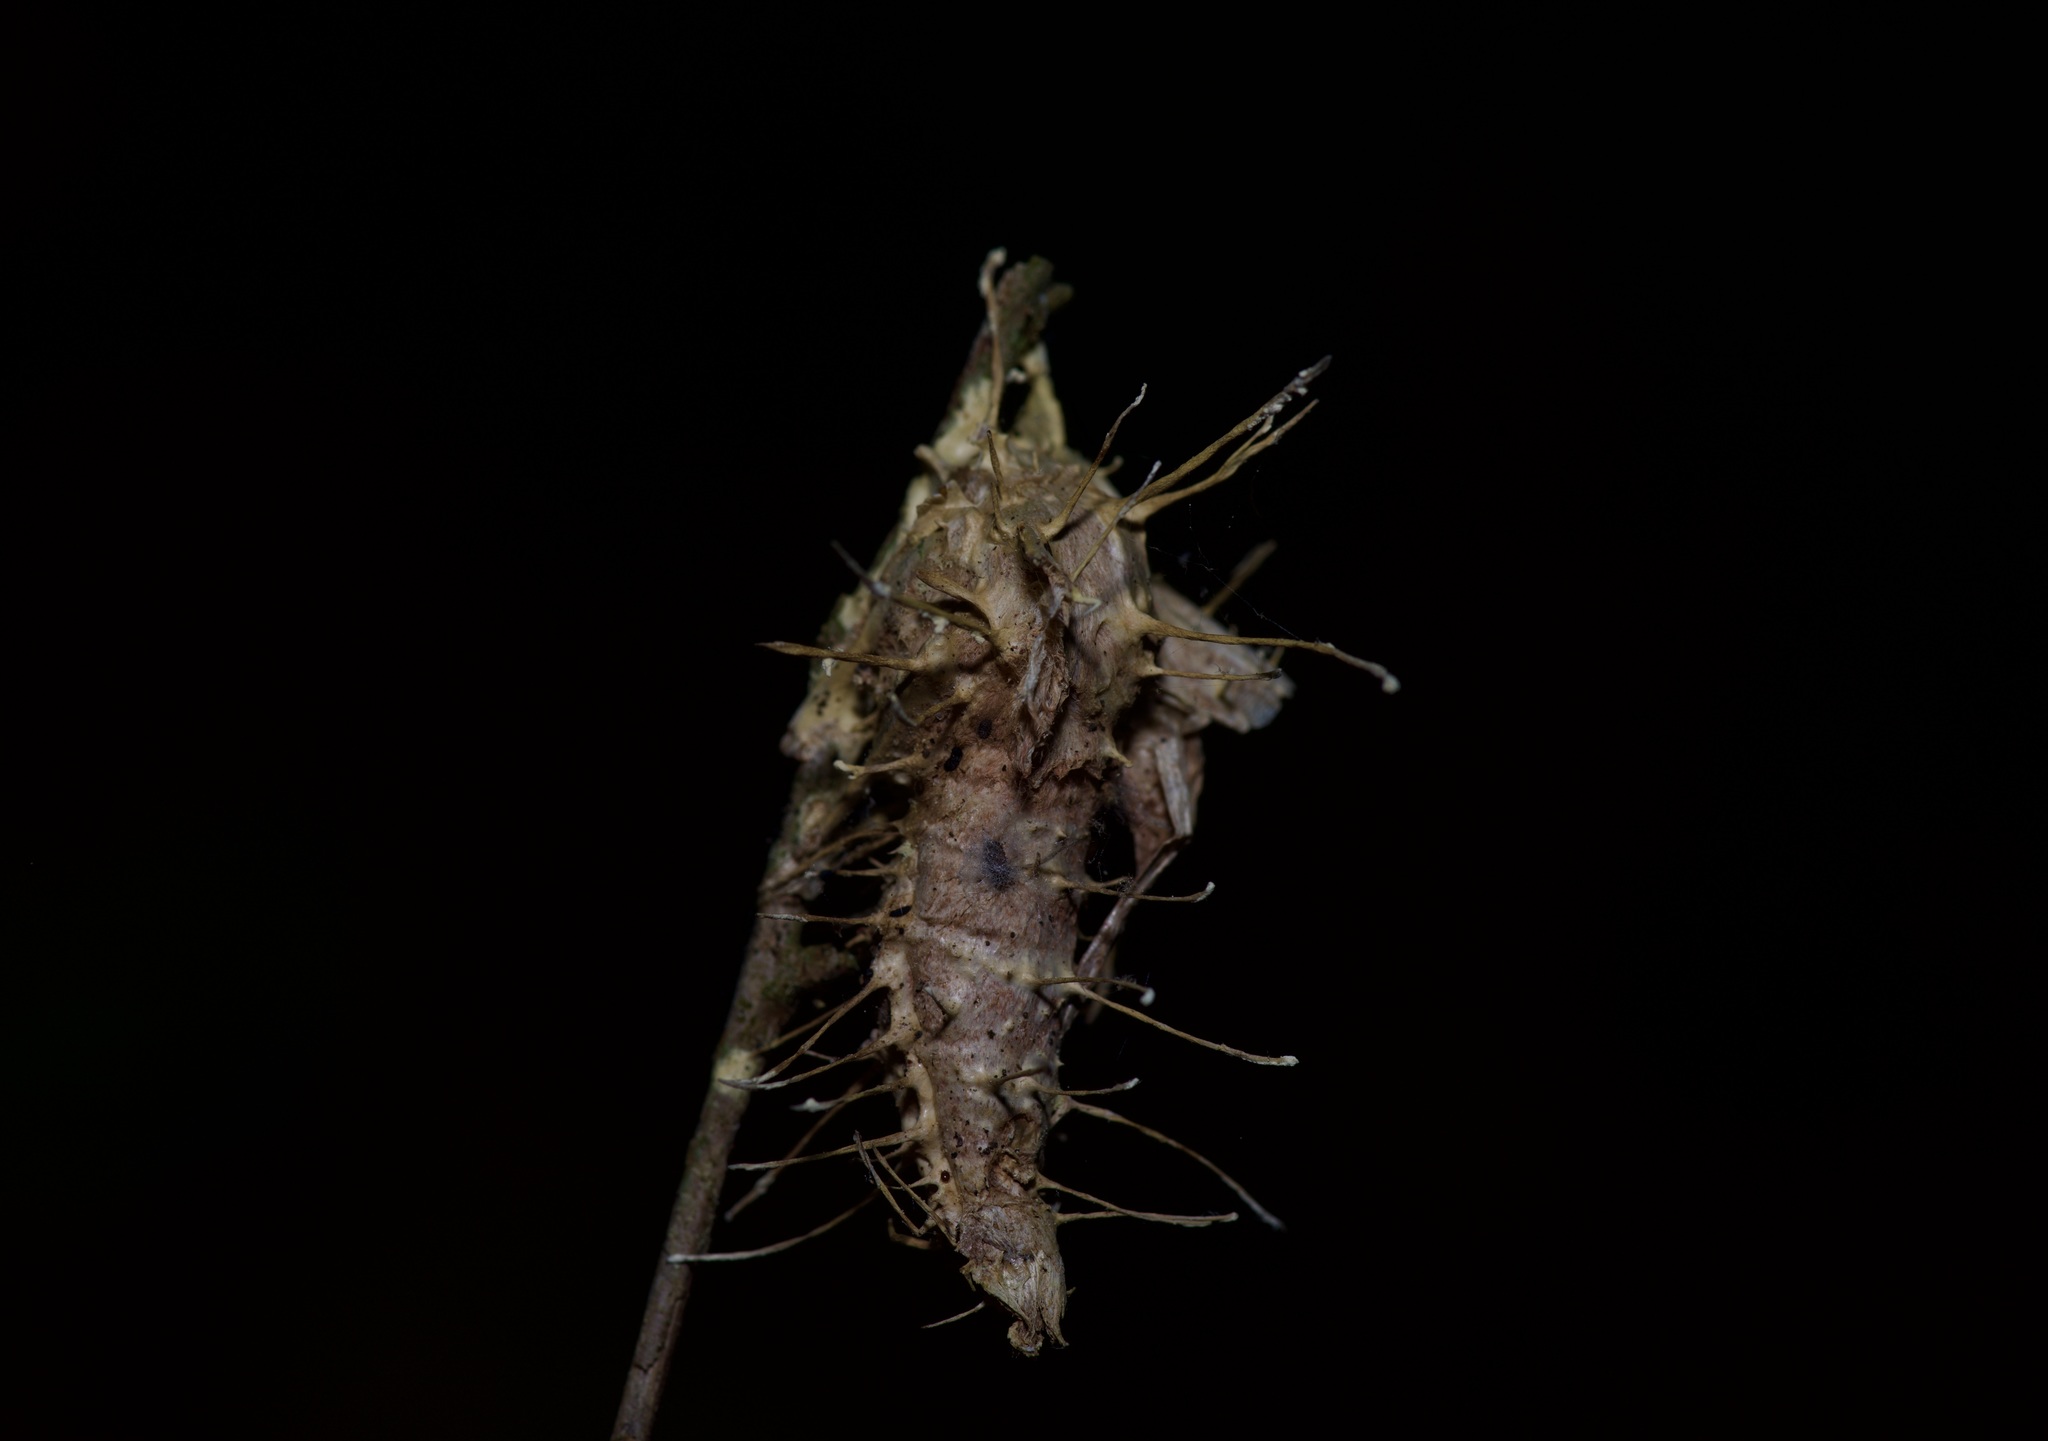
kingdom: Fungi
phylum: Ascomycota
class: Sordariomycetes
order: Hypocreales
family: Cordycipitaceae
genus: Akanthomyces
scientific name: Akanthomyces aculeatus
